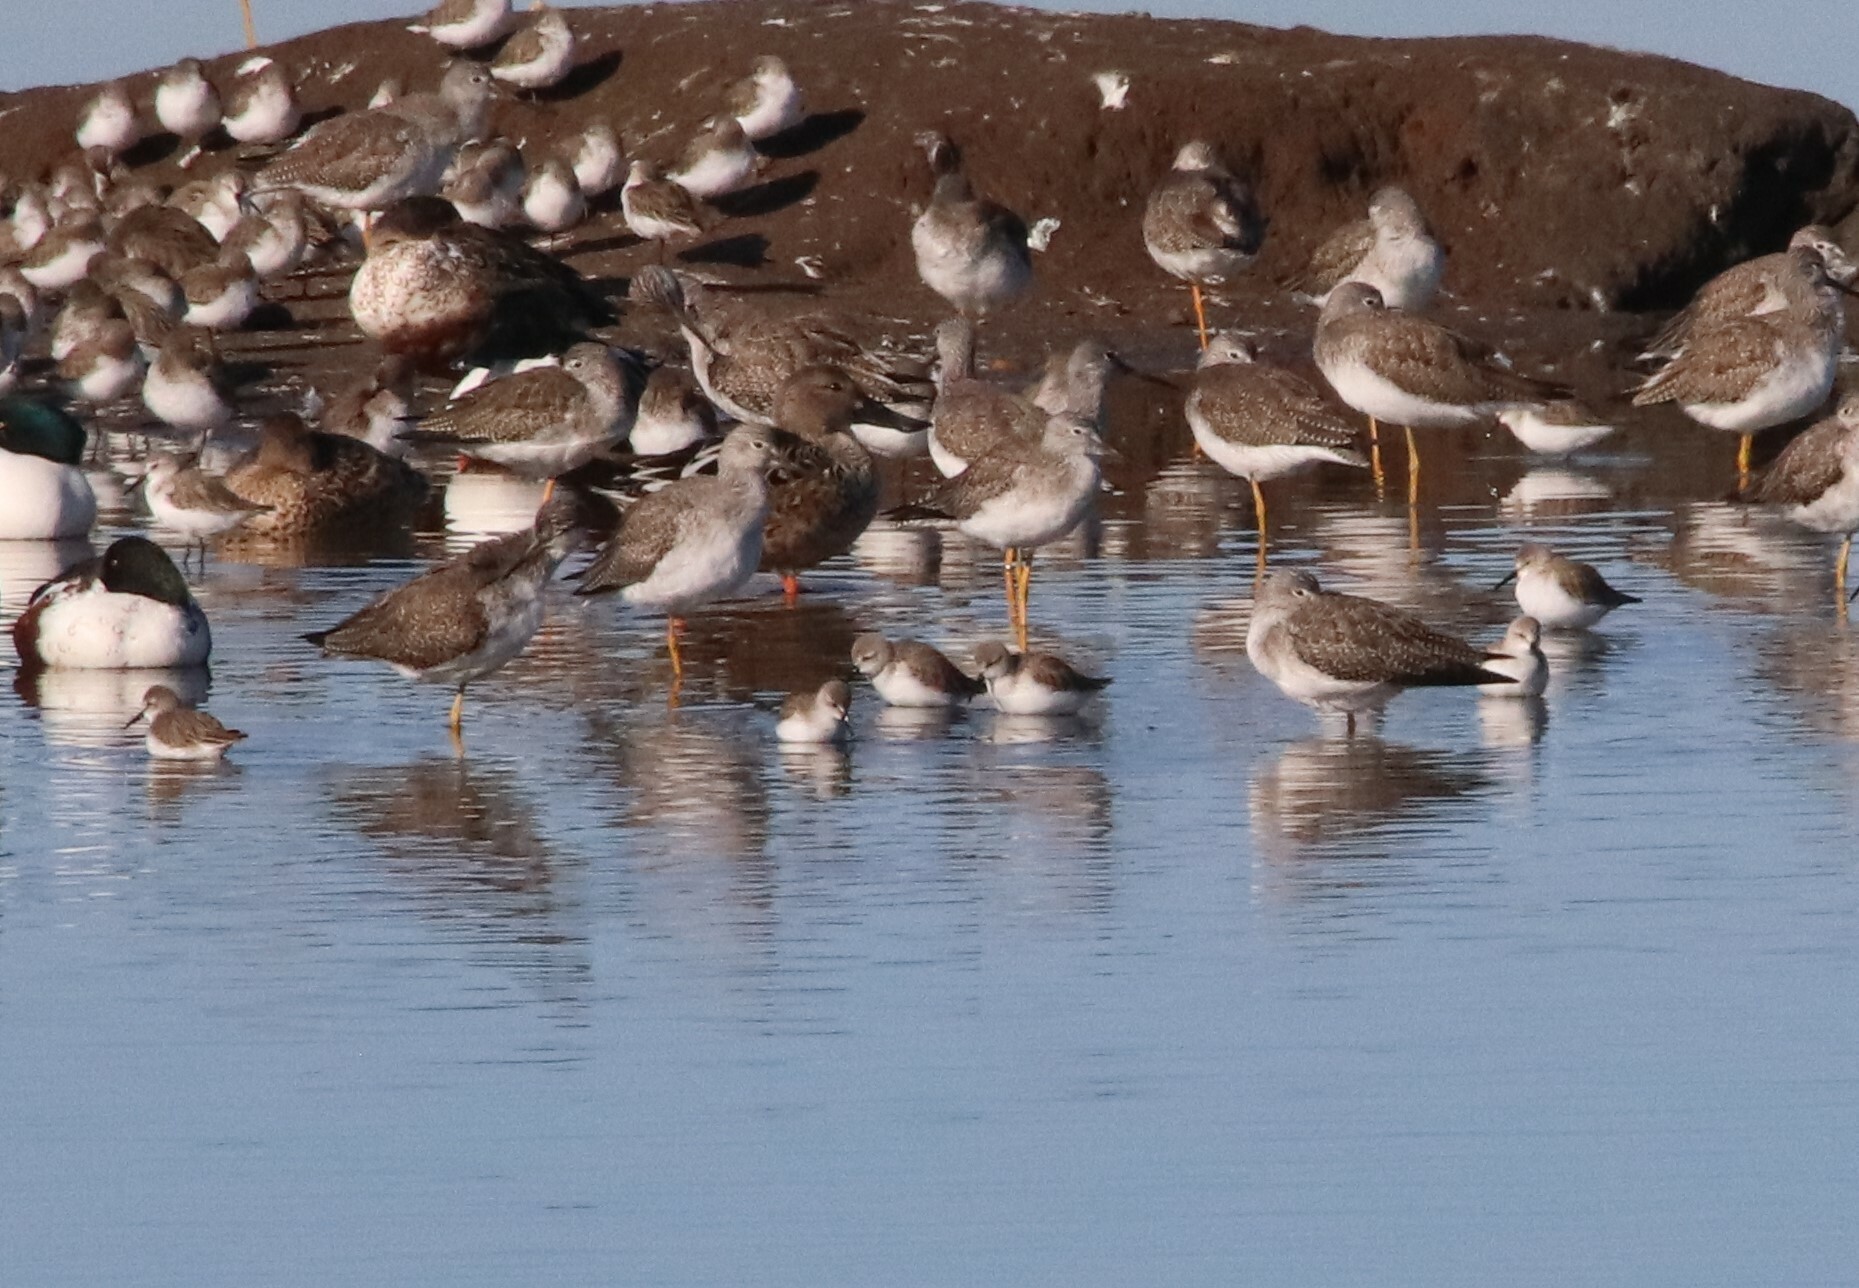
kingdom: Animalia
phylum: Chordata
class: Aves
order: Charadriiformes
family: Scolopacidae
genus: Calidris
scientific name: Calidris mauri
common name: Western sandpiper
